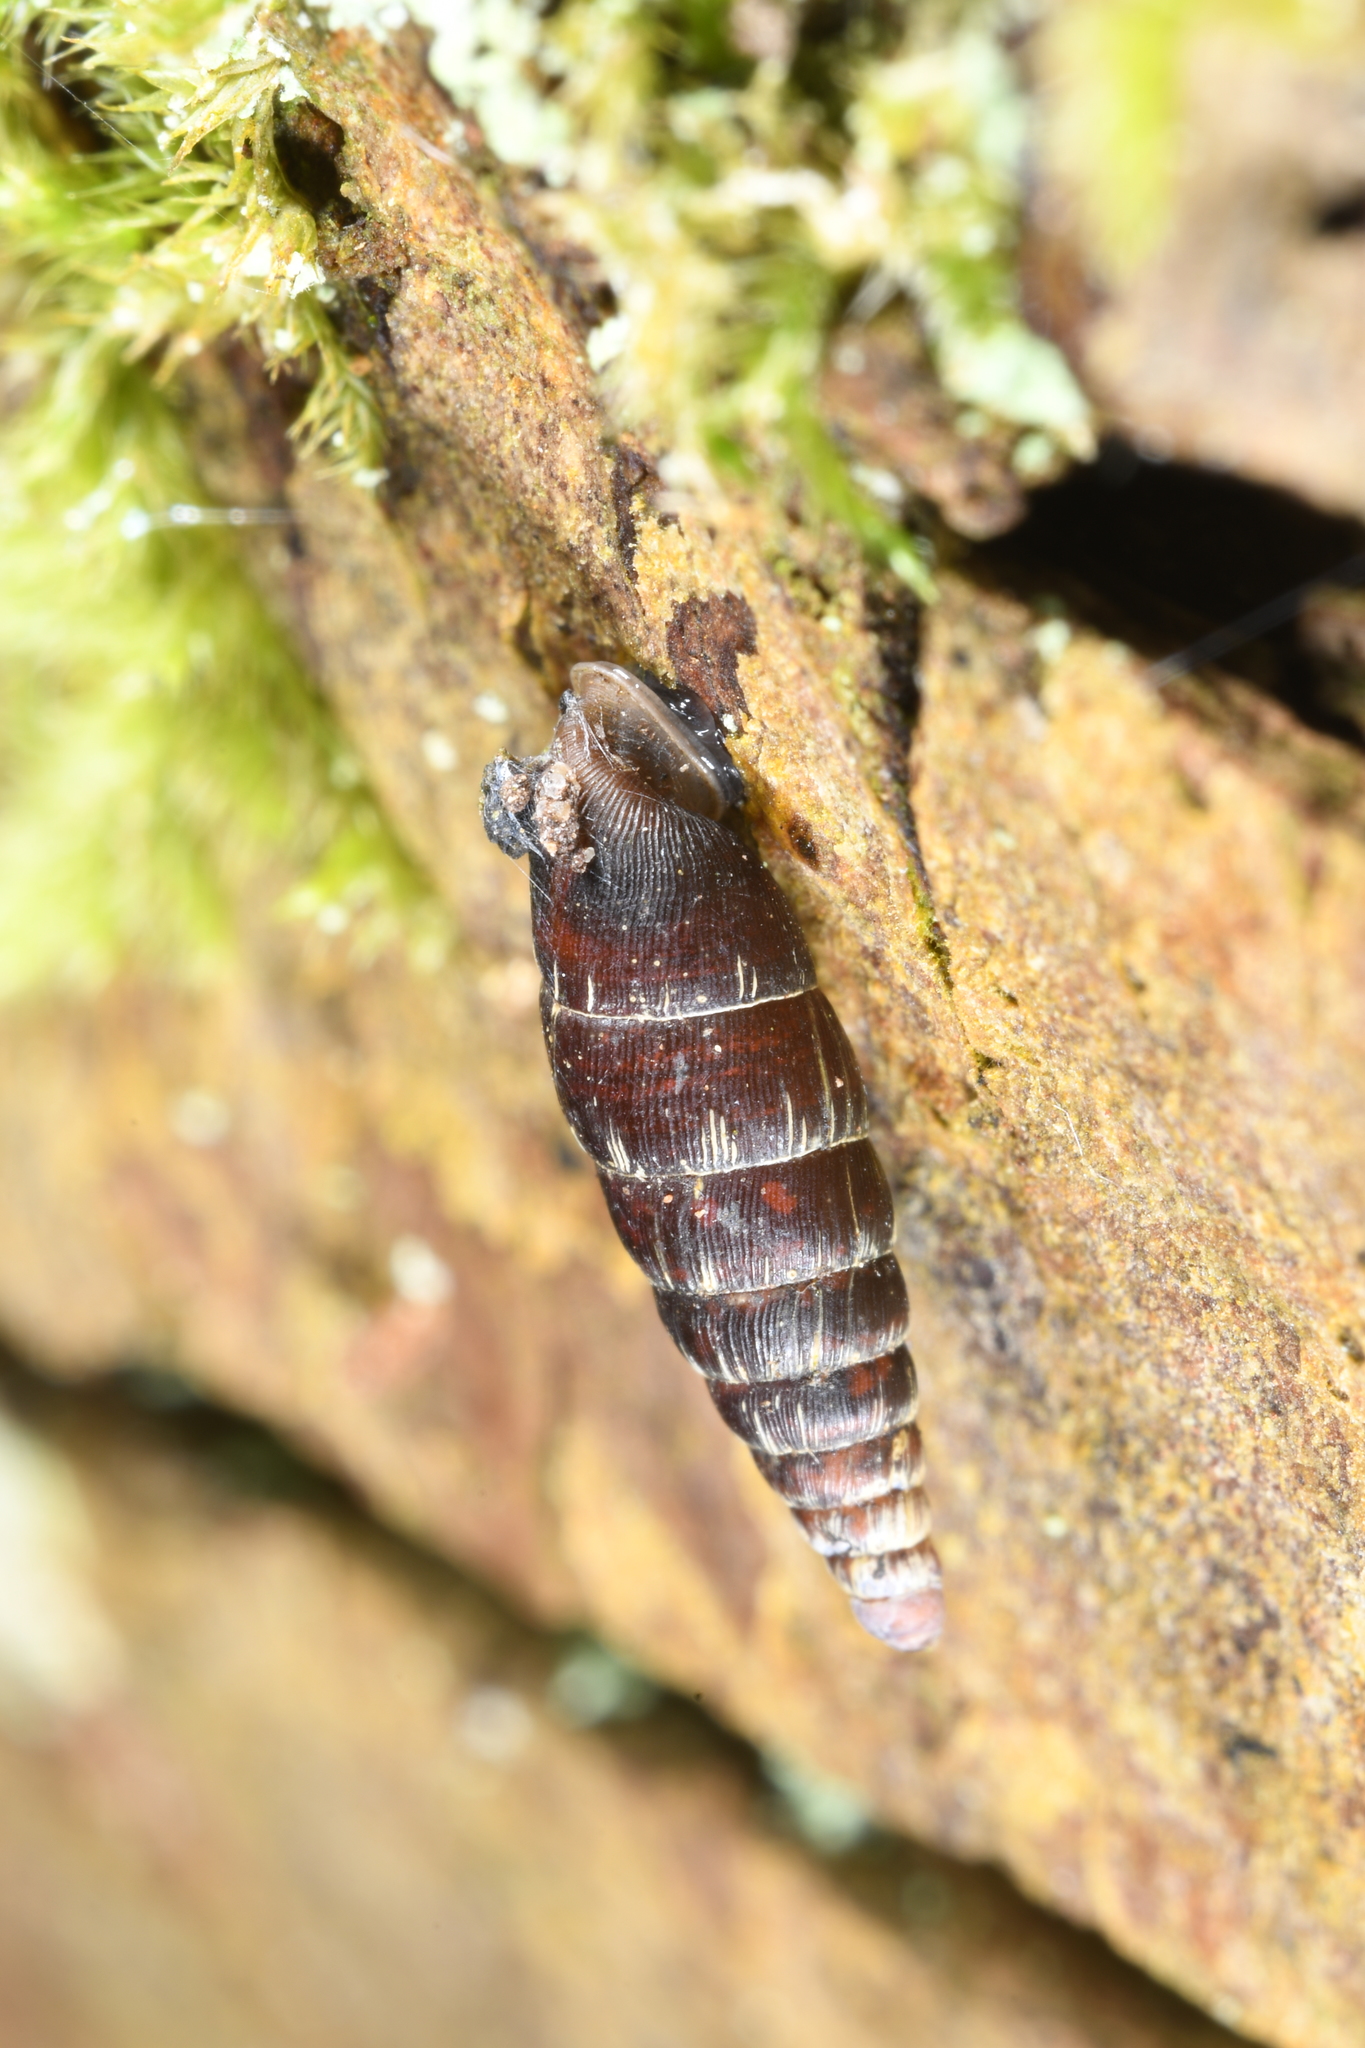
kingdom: Animalia
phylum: Mollusca
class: Gastropoda
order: Stylommatophora
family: Clausiliidae
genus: Clausilia
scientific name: Clausilia bidentata
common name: Two-toothed door snail
